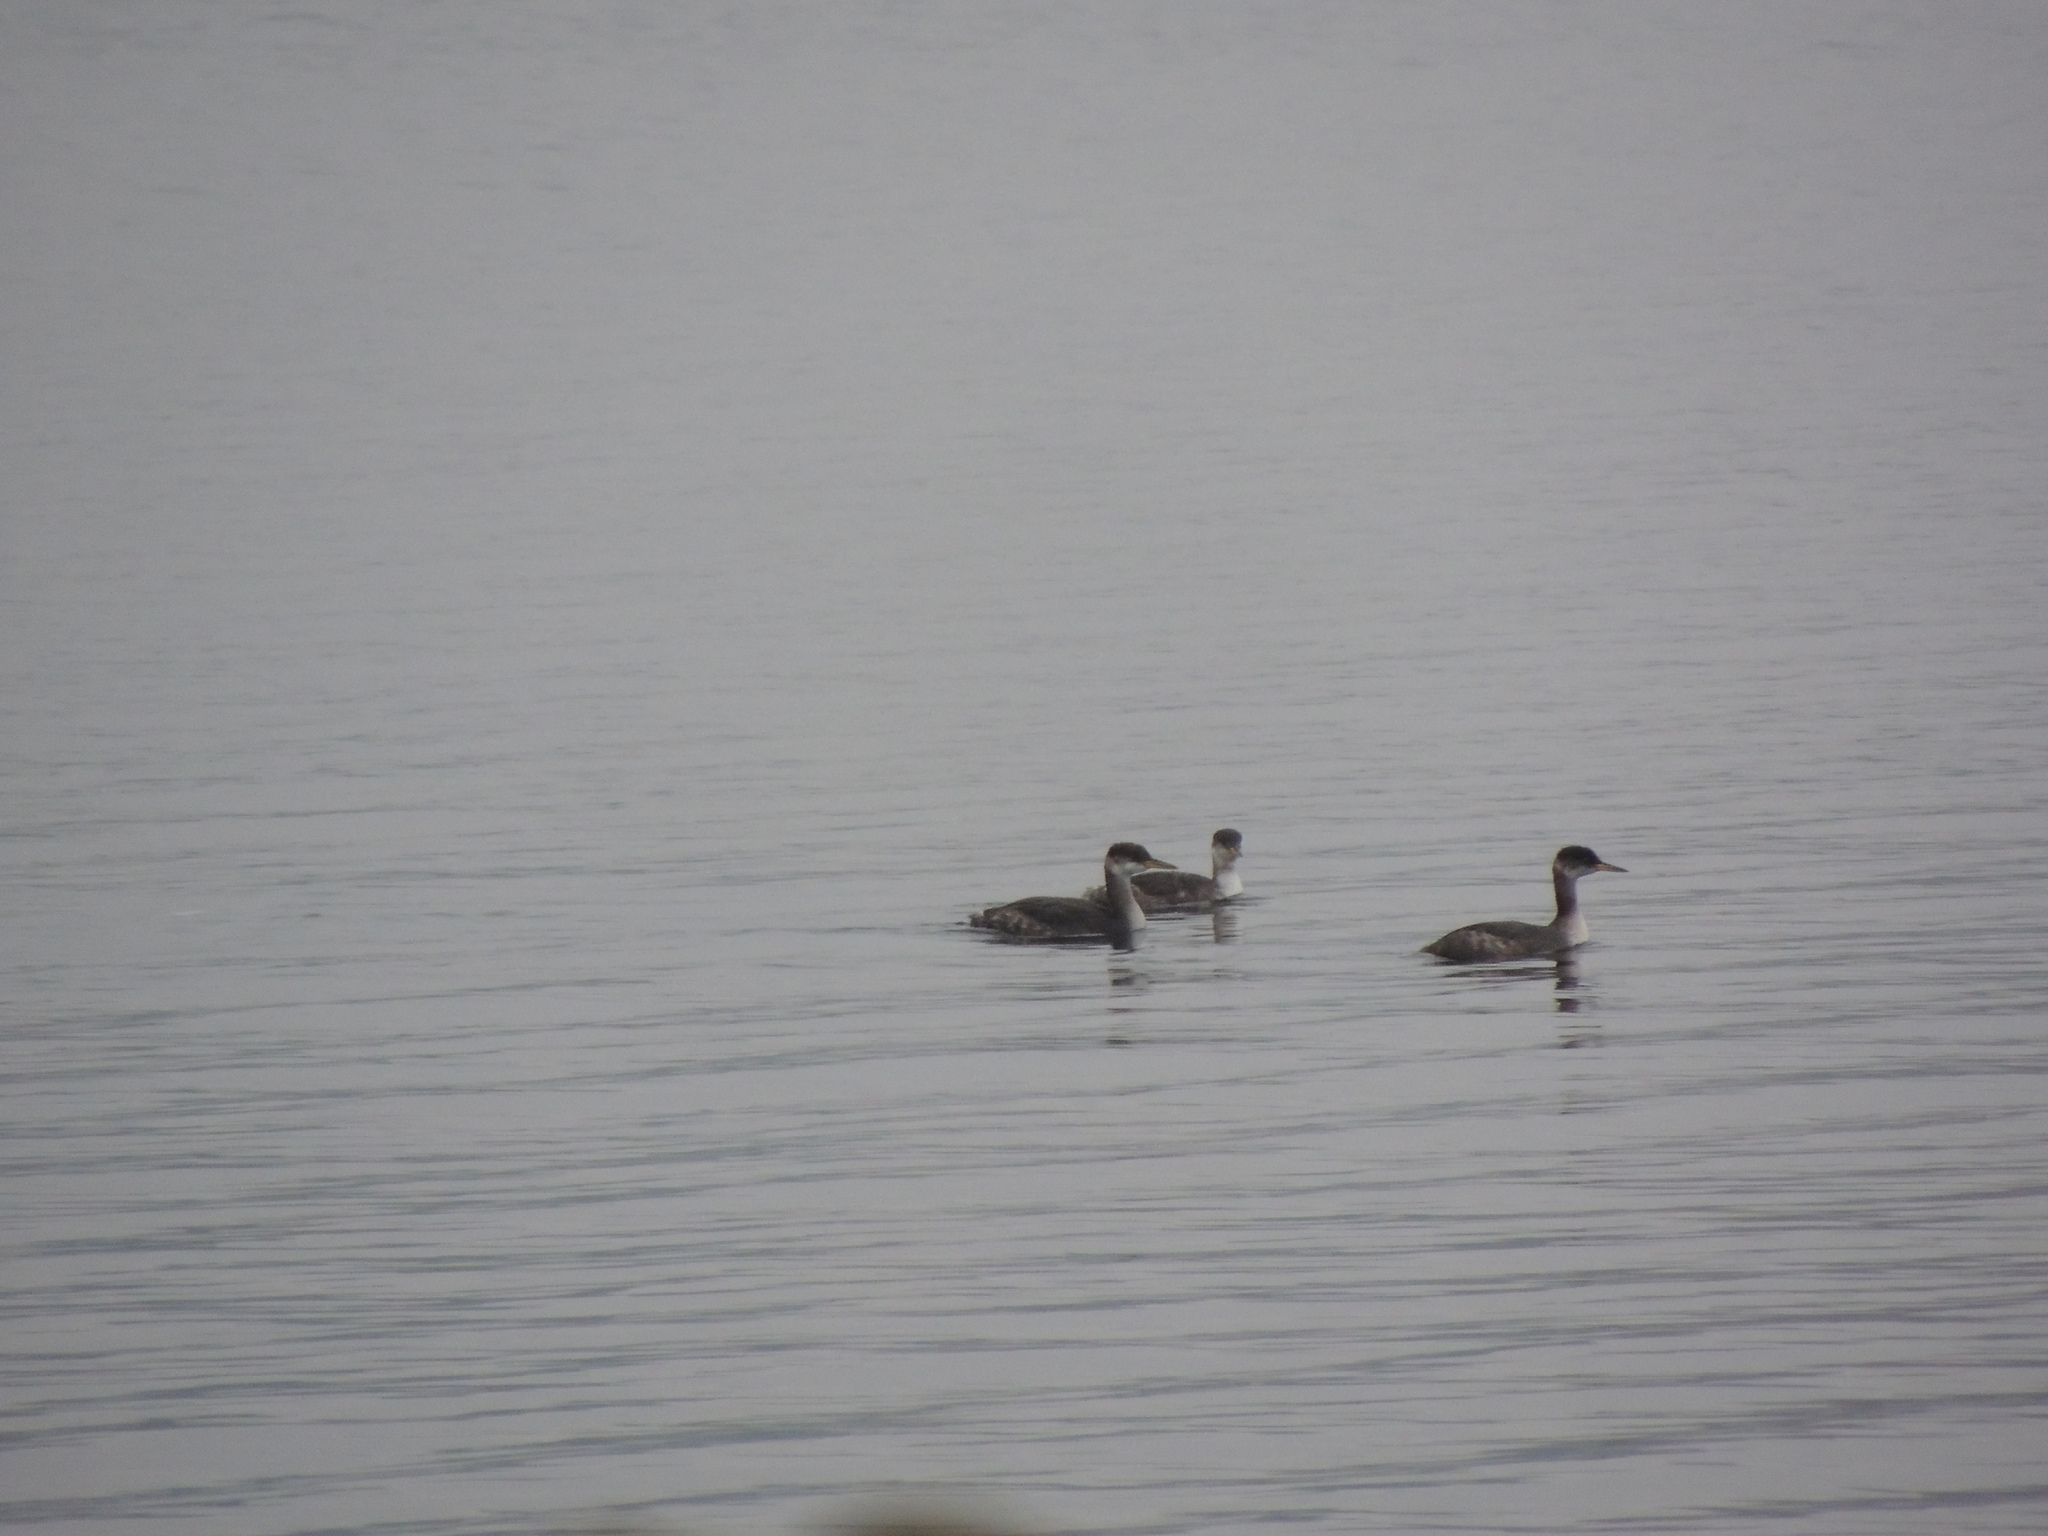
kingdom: Animalia
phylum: Chordata
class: Aves
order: Podicipediformes
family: Podicipedidae
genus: Podiceps
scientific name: Podiceps grisegena
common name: Red-necked grebe
